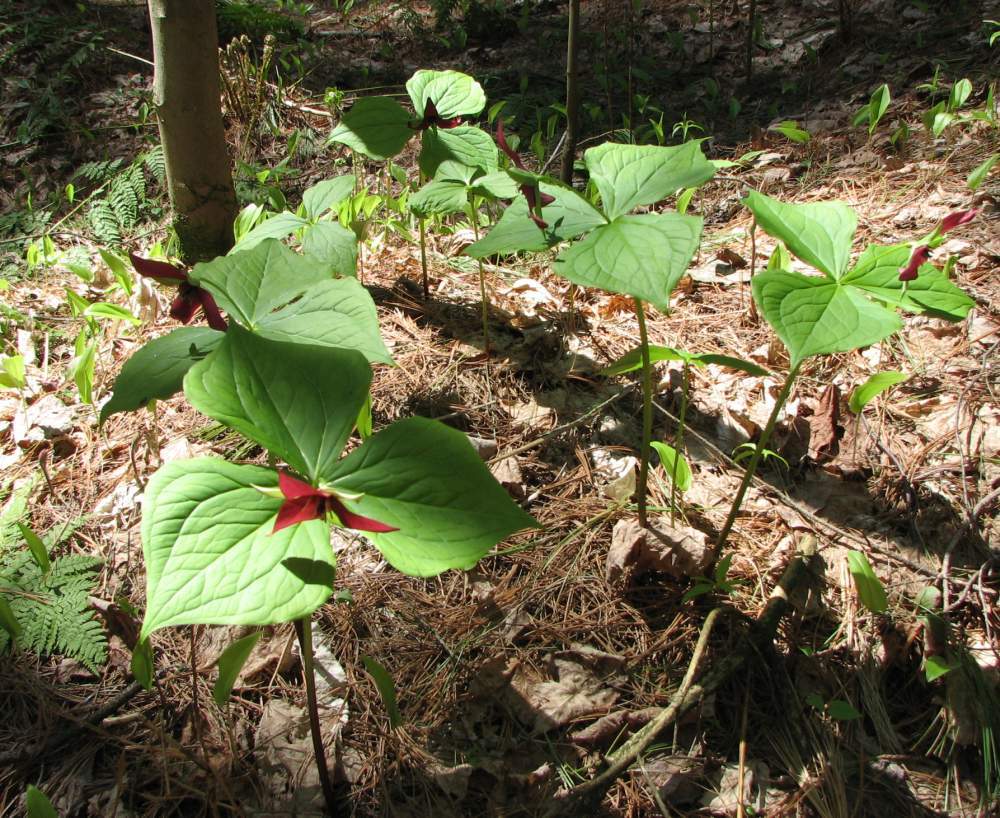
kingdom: Plantae
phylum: Tracheophyta
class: Liliopsida
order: Liliales
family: Melanthiaceae
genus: Trillium
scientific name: Trillium erectum
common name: Purple trillium
